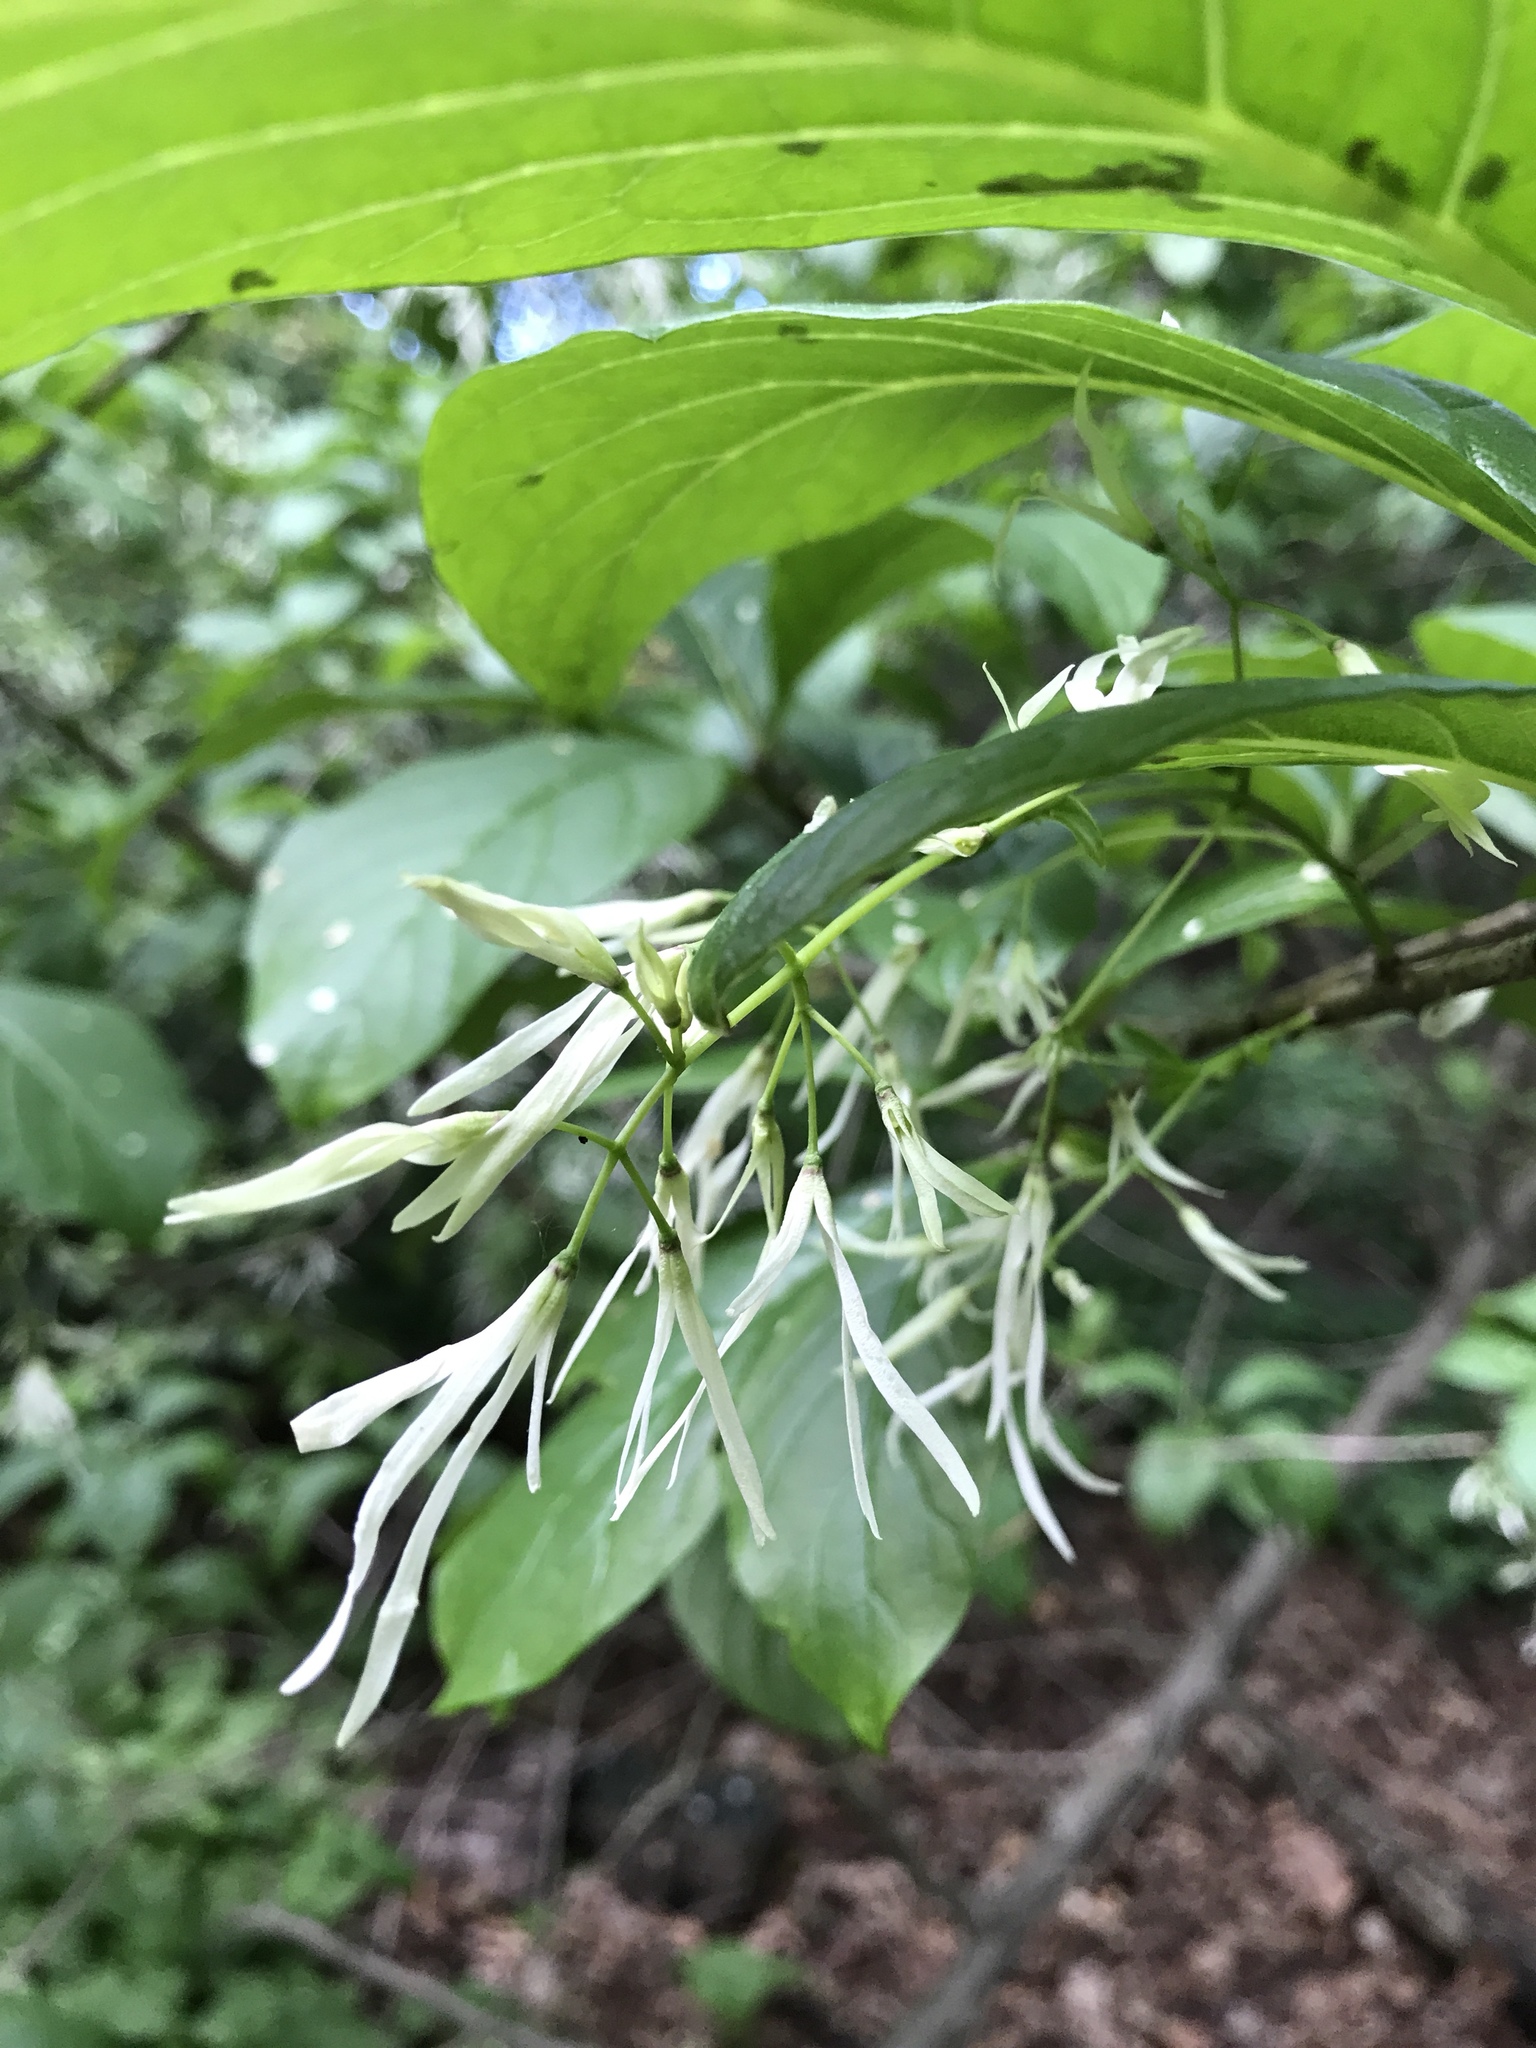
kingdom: Plantae
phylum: Tracheophyta
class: Magnoliopsida
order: Lamiales
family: Oleaceae
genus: Chionanthus
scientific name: Chionanthus virginicus
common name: American fringetree
